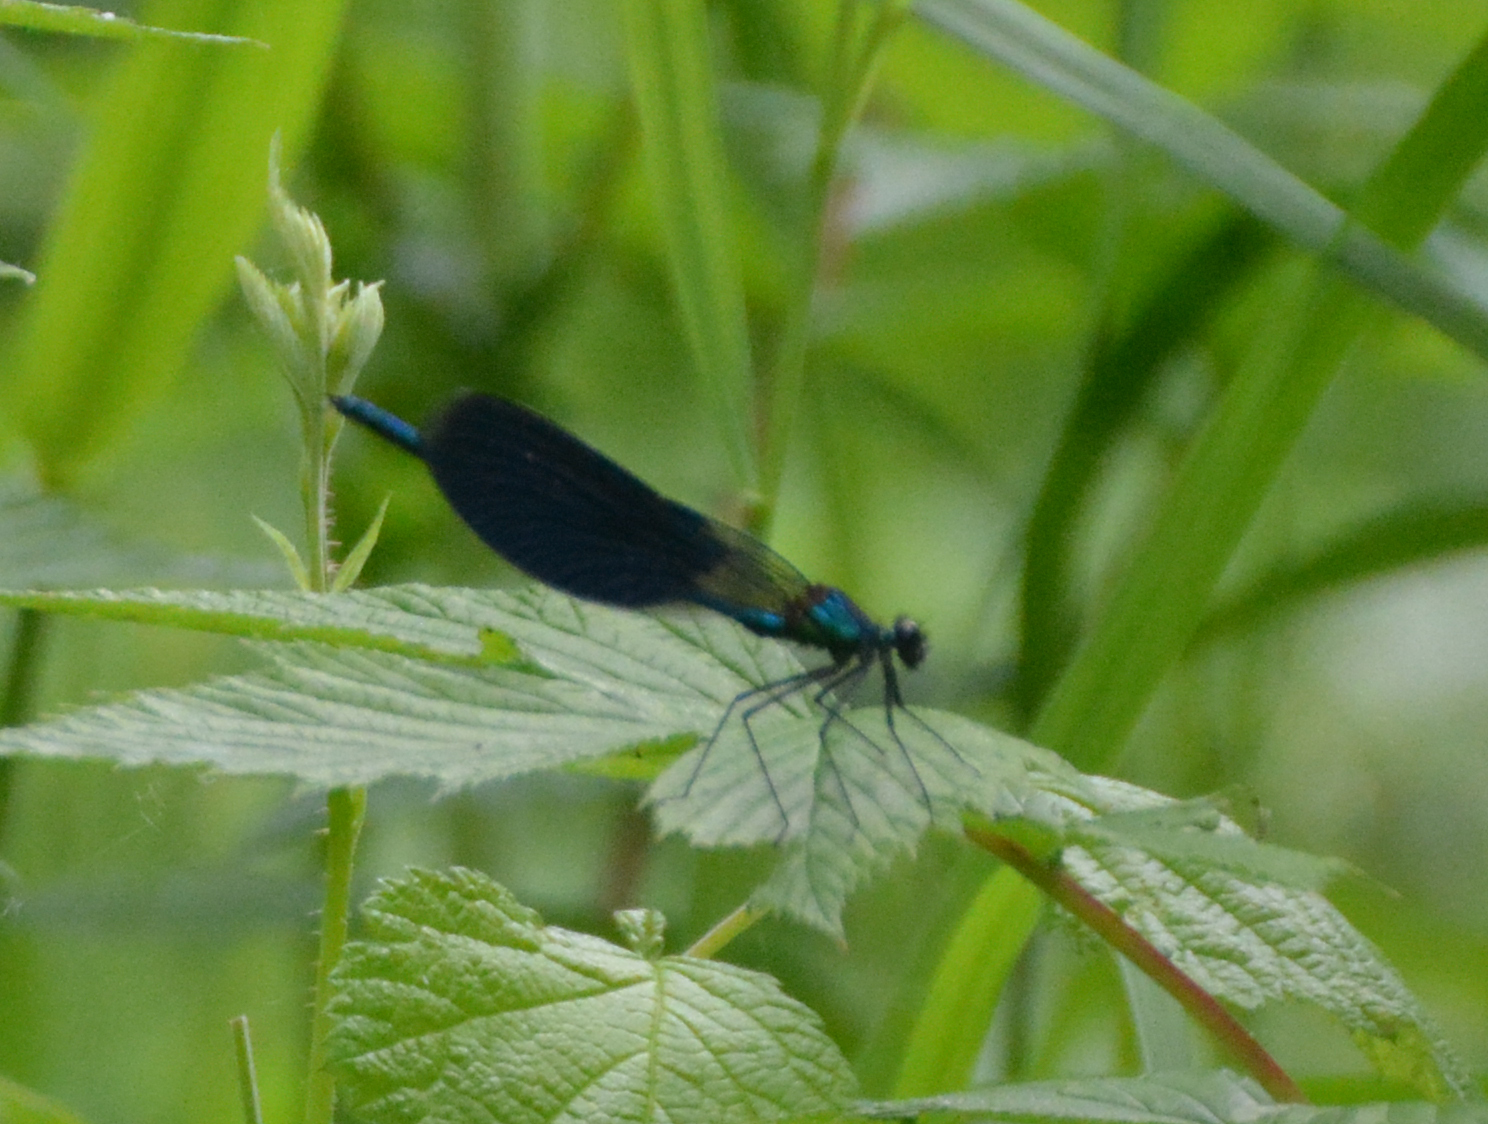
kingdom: Animalia
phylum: Arthropoda
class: Insecta
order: Odonata
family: Calopterygidae
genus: Calopteryx
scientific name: Calopteryx splendens
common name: Banded demoiselle
